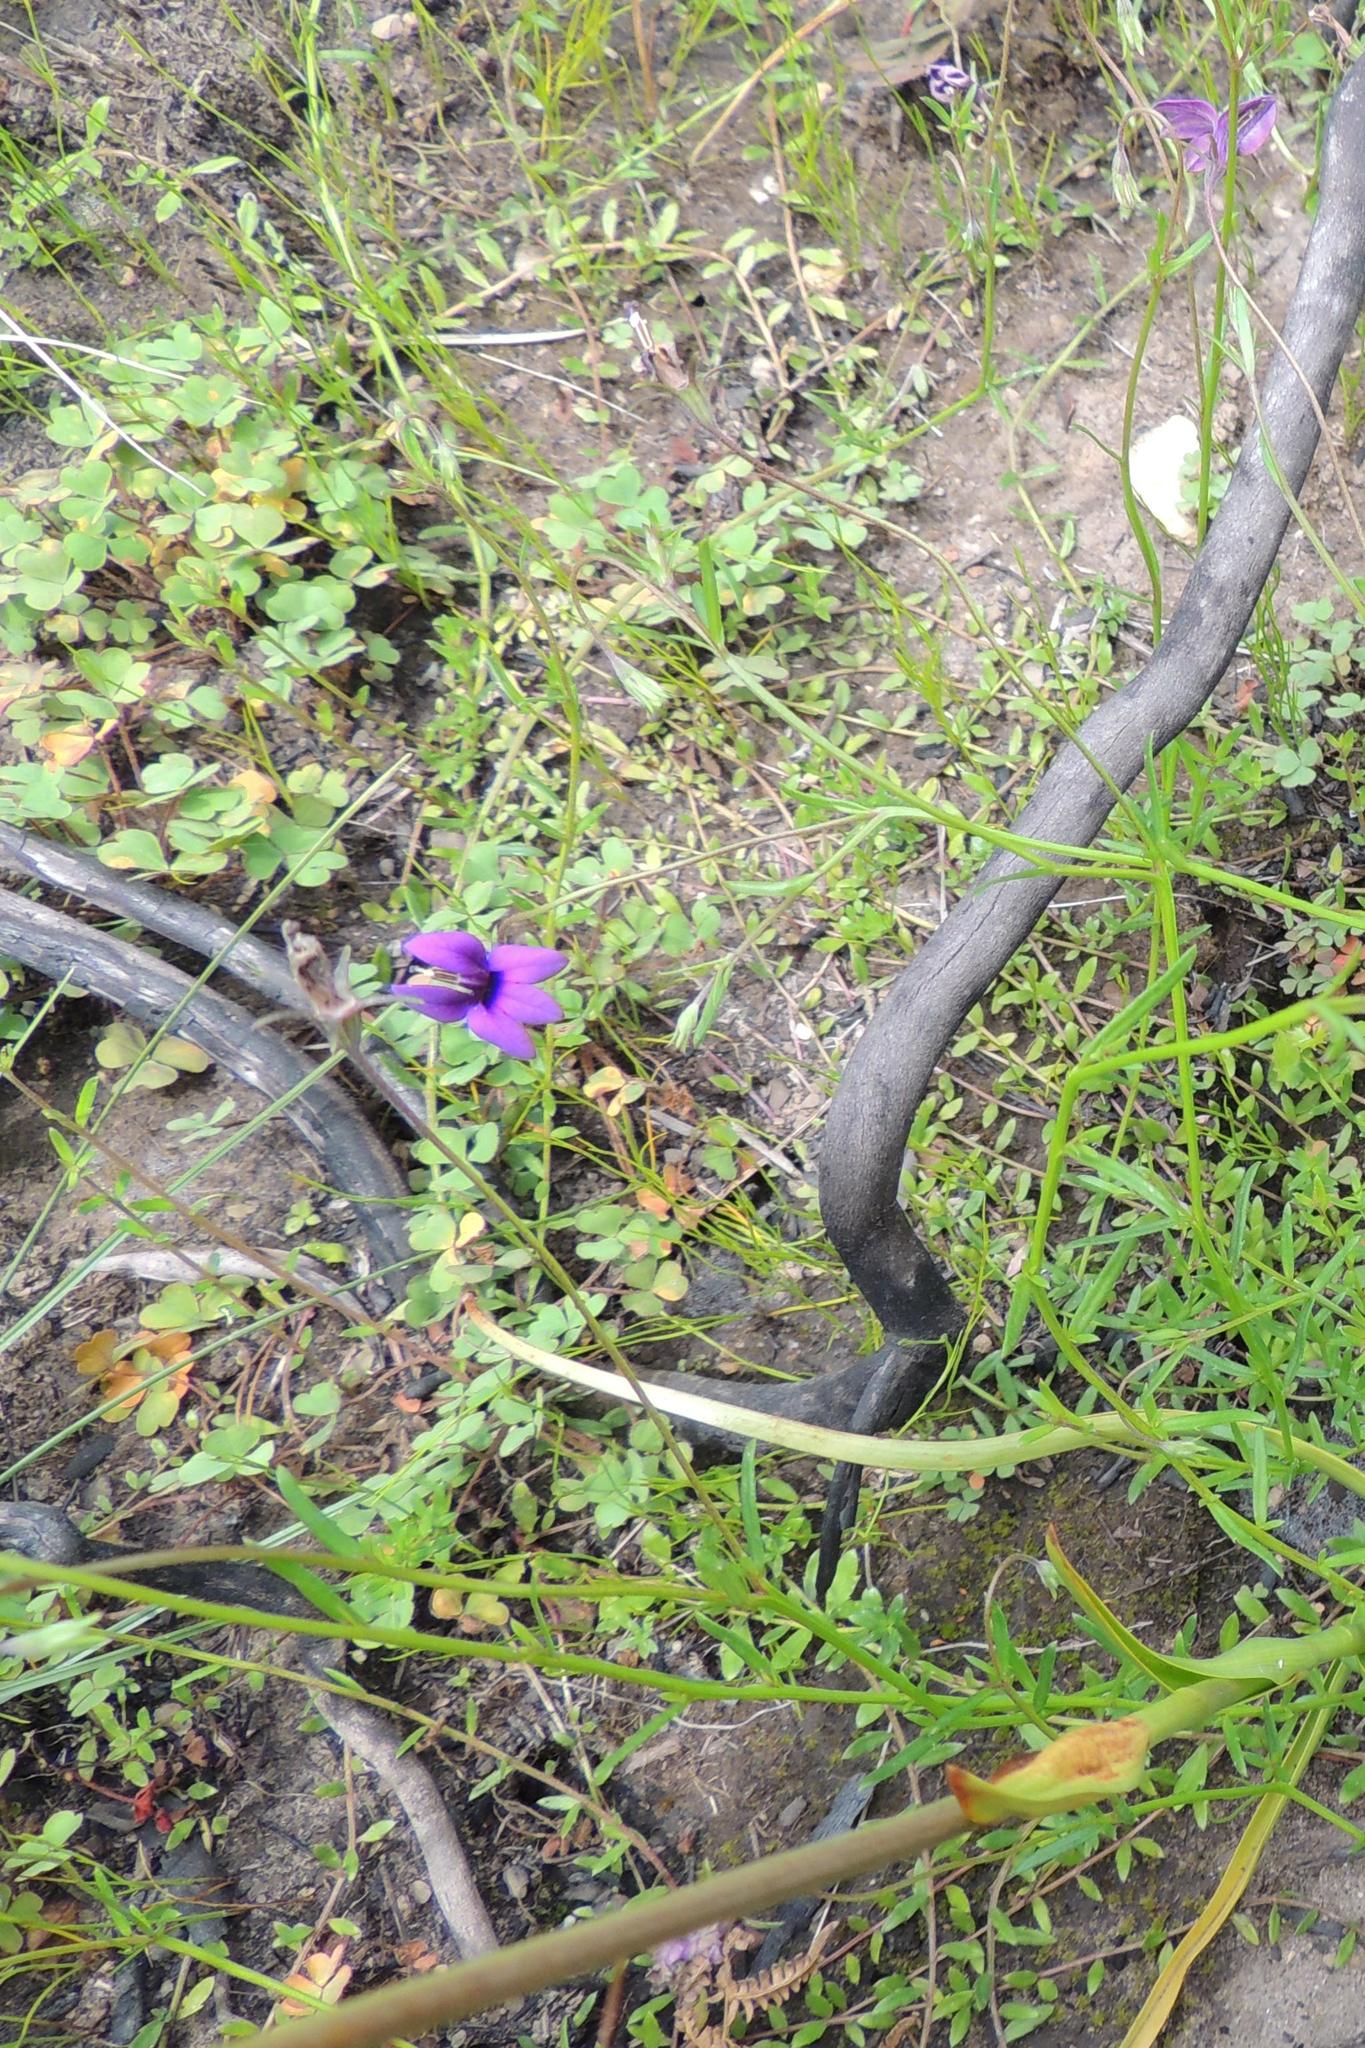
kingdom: Plantae
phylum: Tracheophyta
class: Magnoliopsida
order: Asterales
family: Campanulaceae
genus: Monopsis
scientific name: Monopsis unidentata
